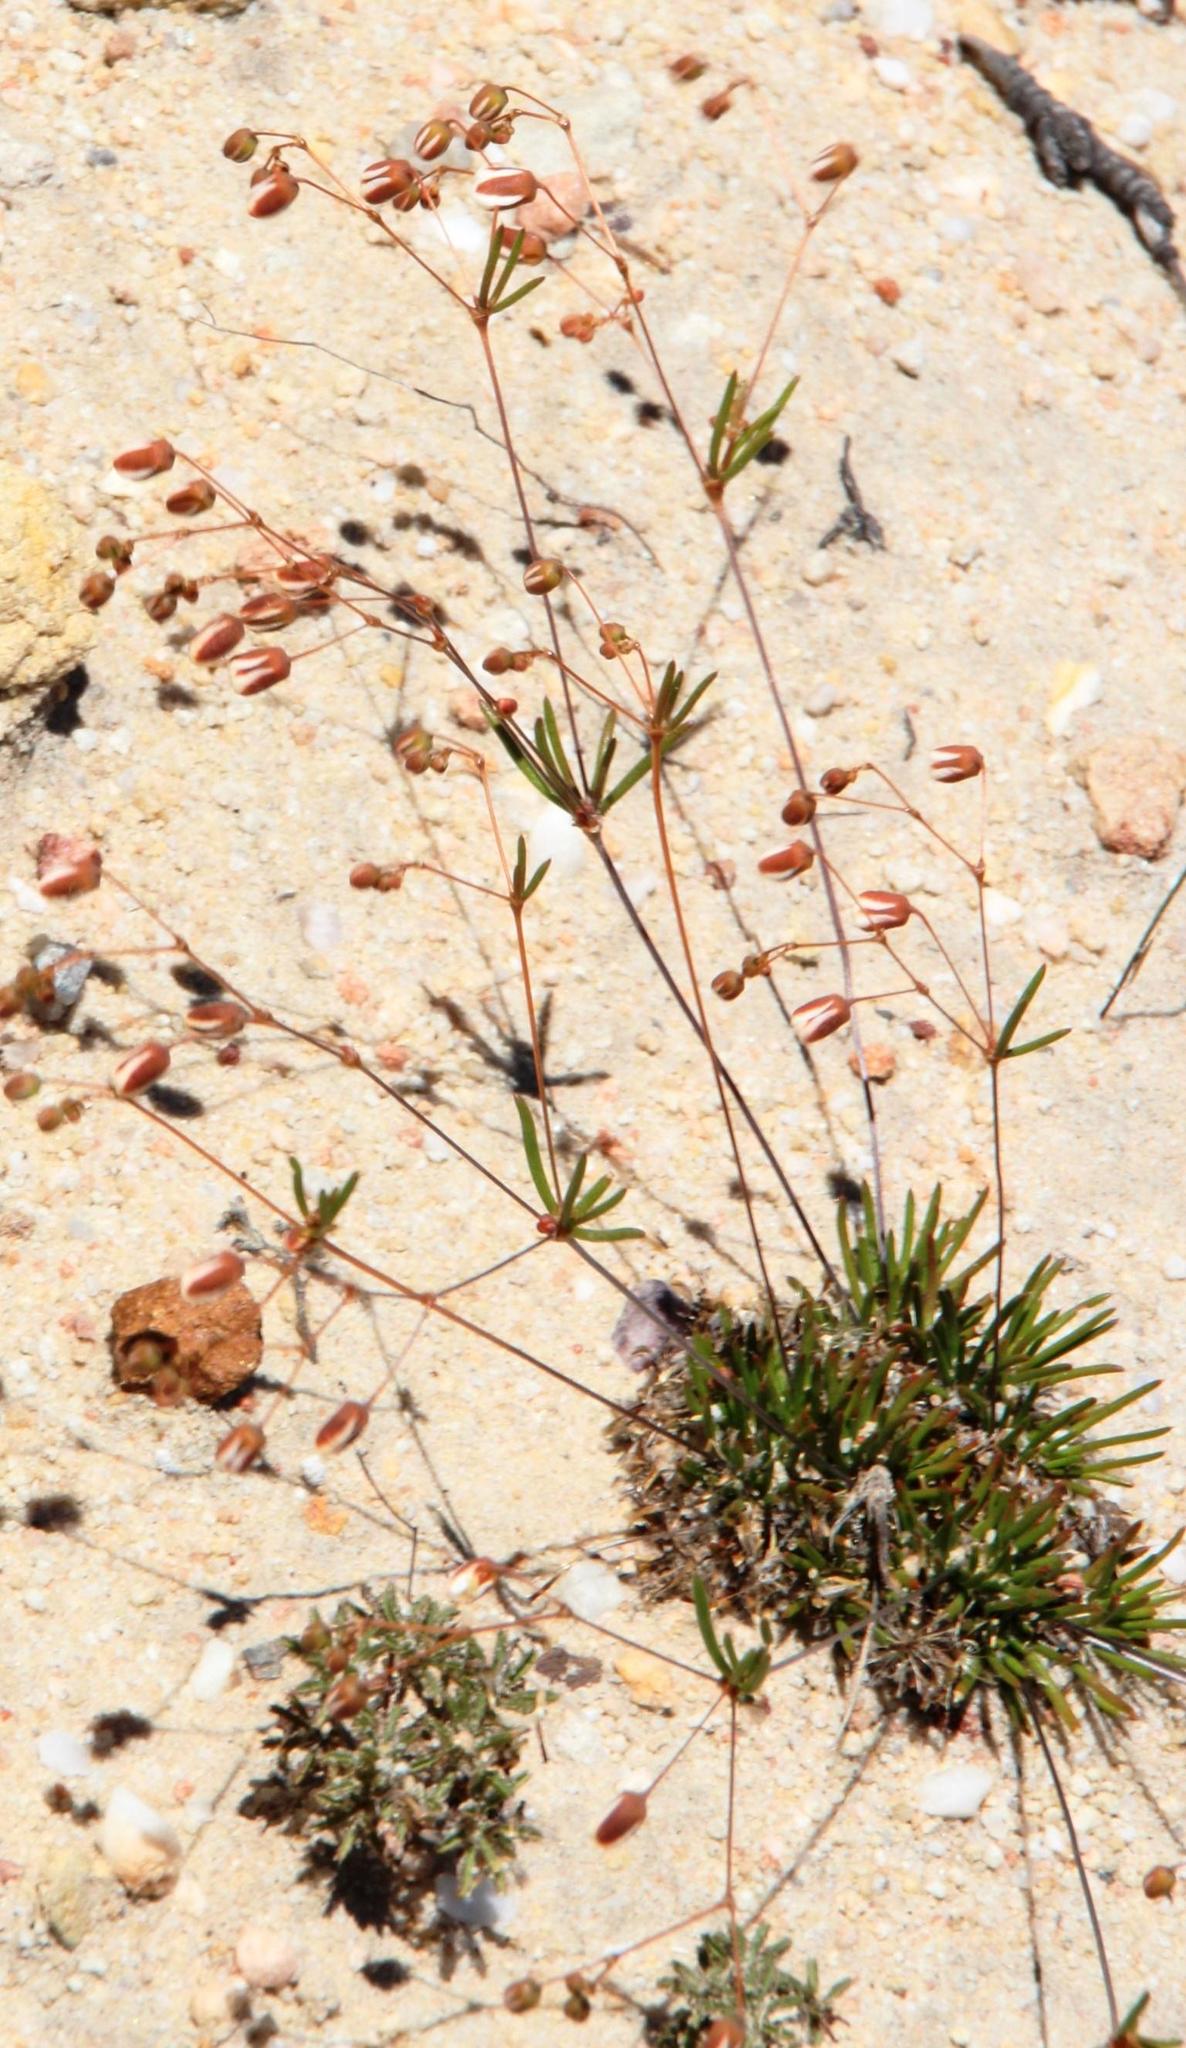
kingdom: Plantae
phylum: Tracheophyta
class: Magnoliopsida
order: Caryophyllales
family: Molluginaceae
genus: Pharnaceum
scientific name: Pharnaceum dichotomum
